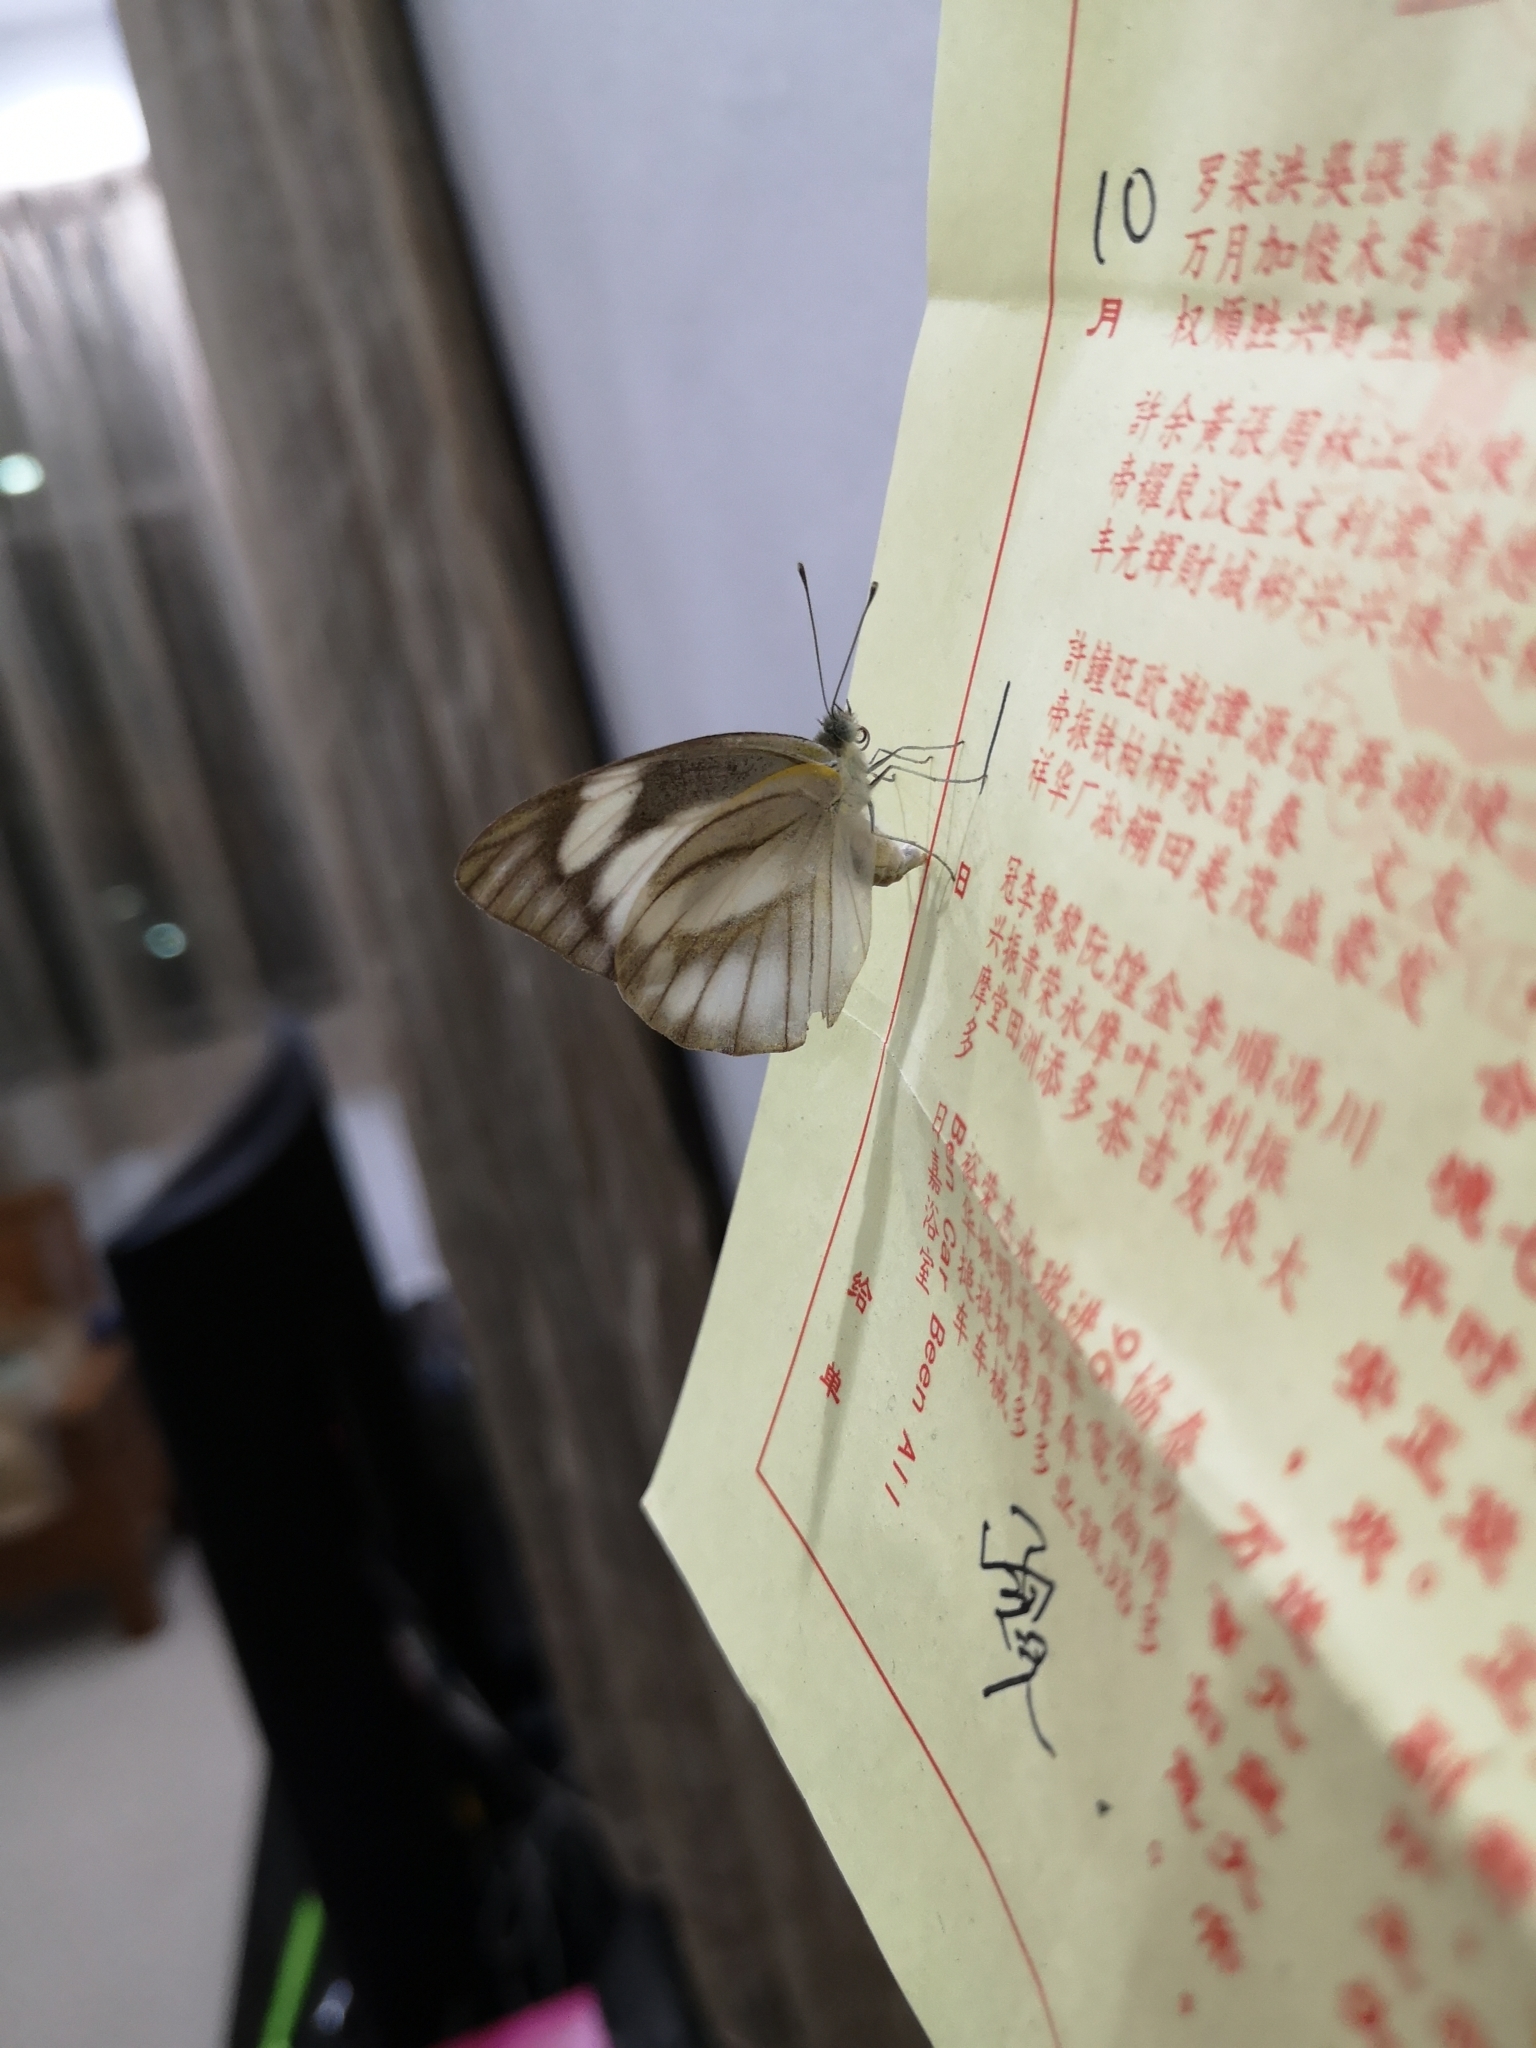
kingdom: Animalia
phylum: Arthropoda
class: Insecta
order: Lepidoptera
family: Pieridae
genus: Appias
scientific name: Appias libythea
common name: Striped albatross
